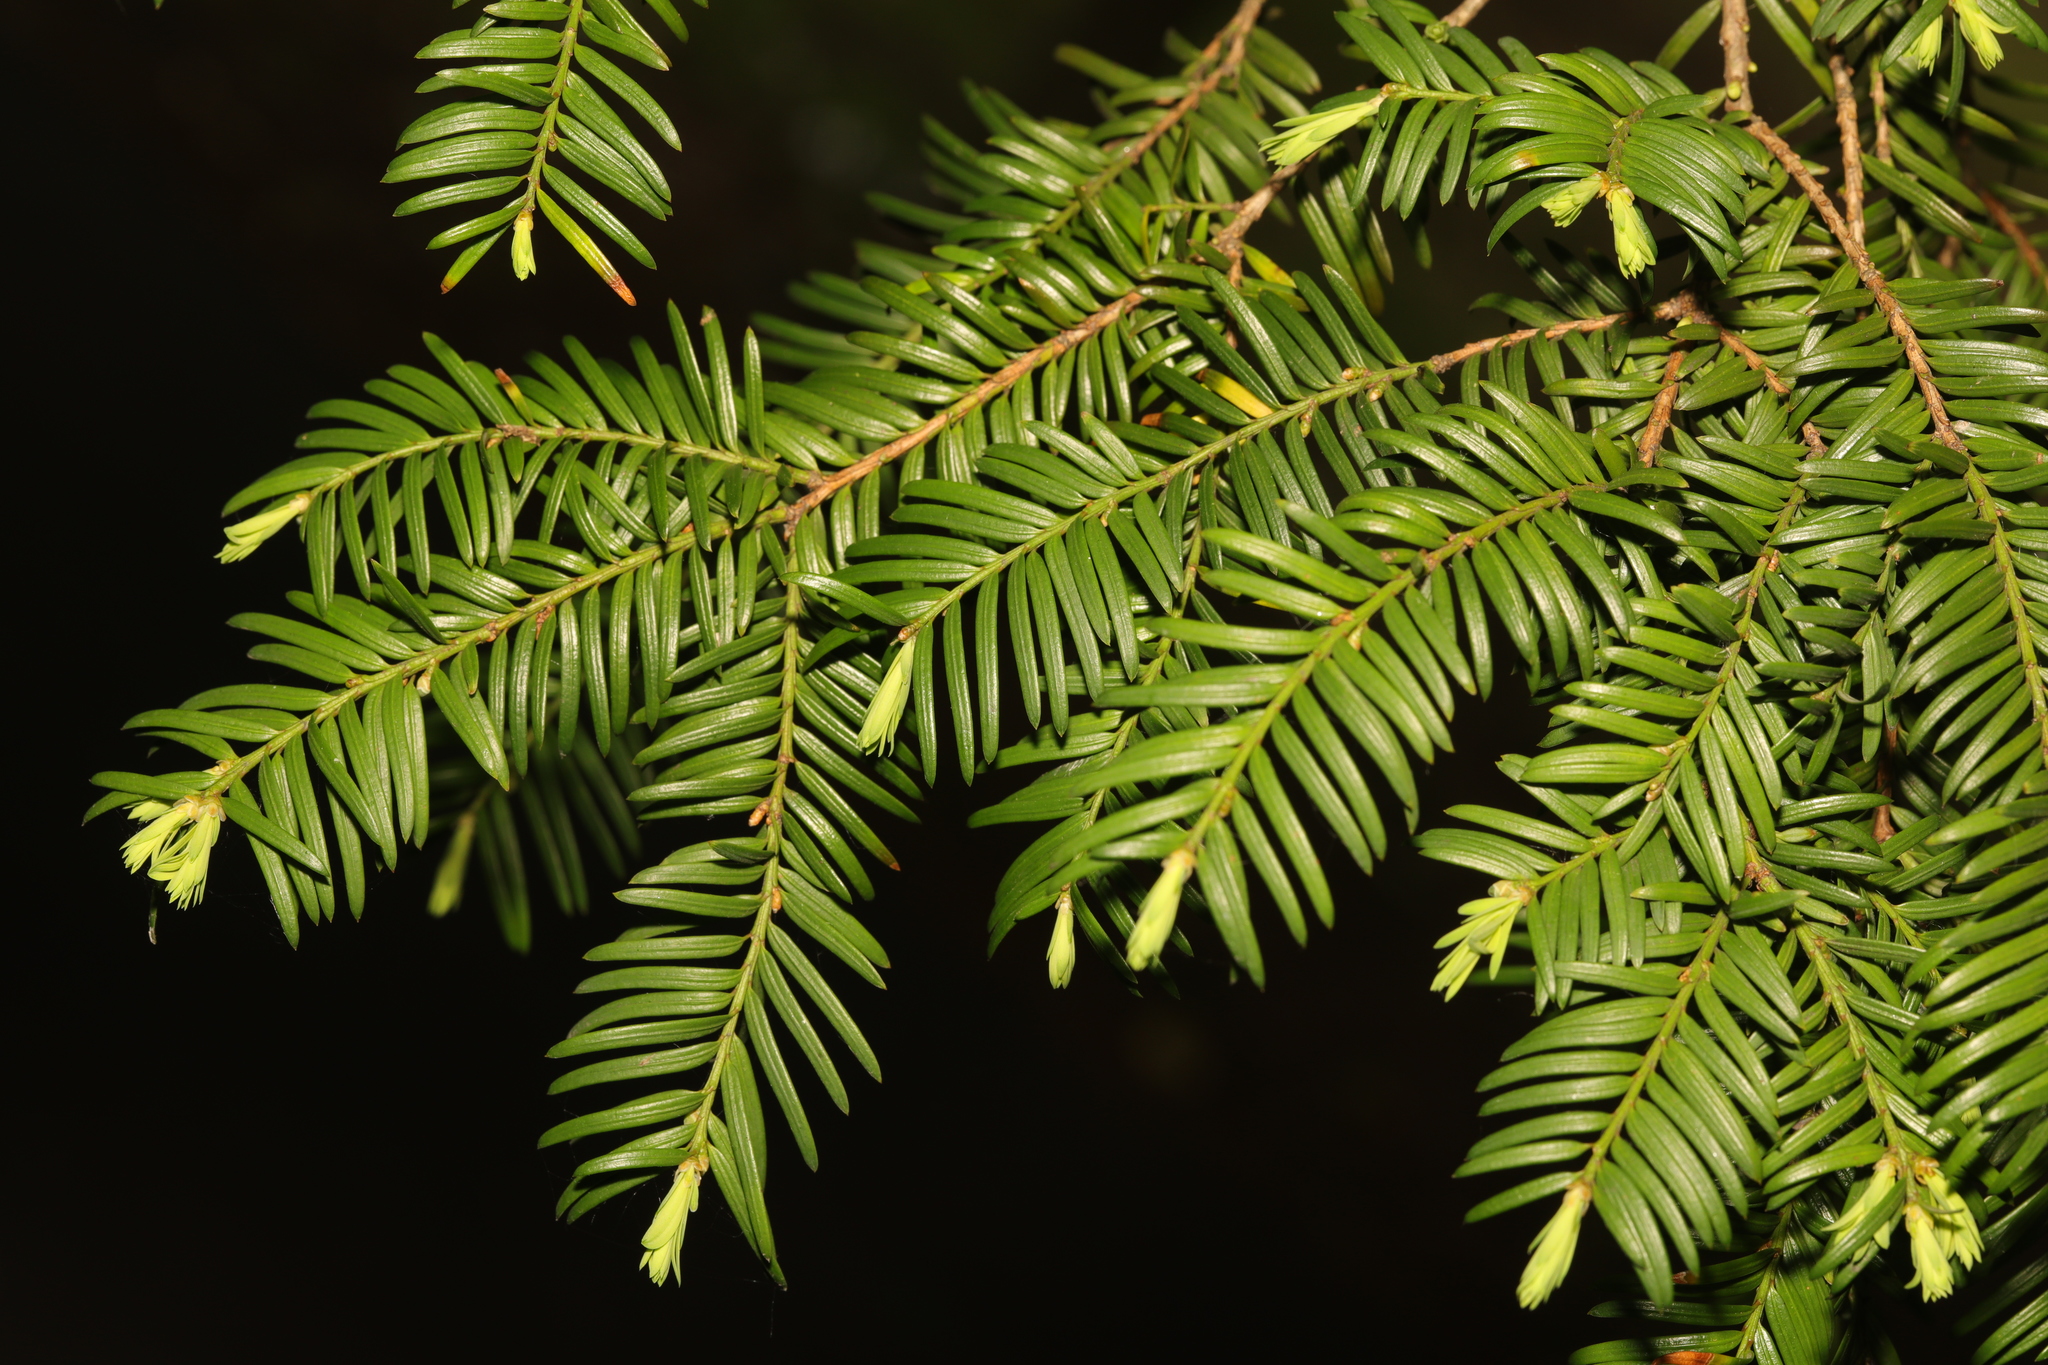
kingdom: Plantae
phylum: Tracheophyta
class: Pinopsida
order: Pinales
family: Taxaceae
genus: Taxus
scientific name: Taxus baccata
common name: Yew
